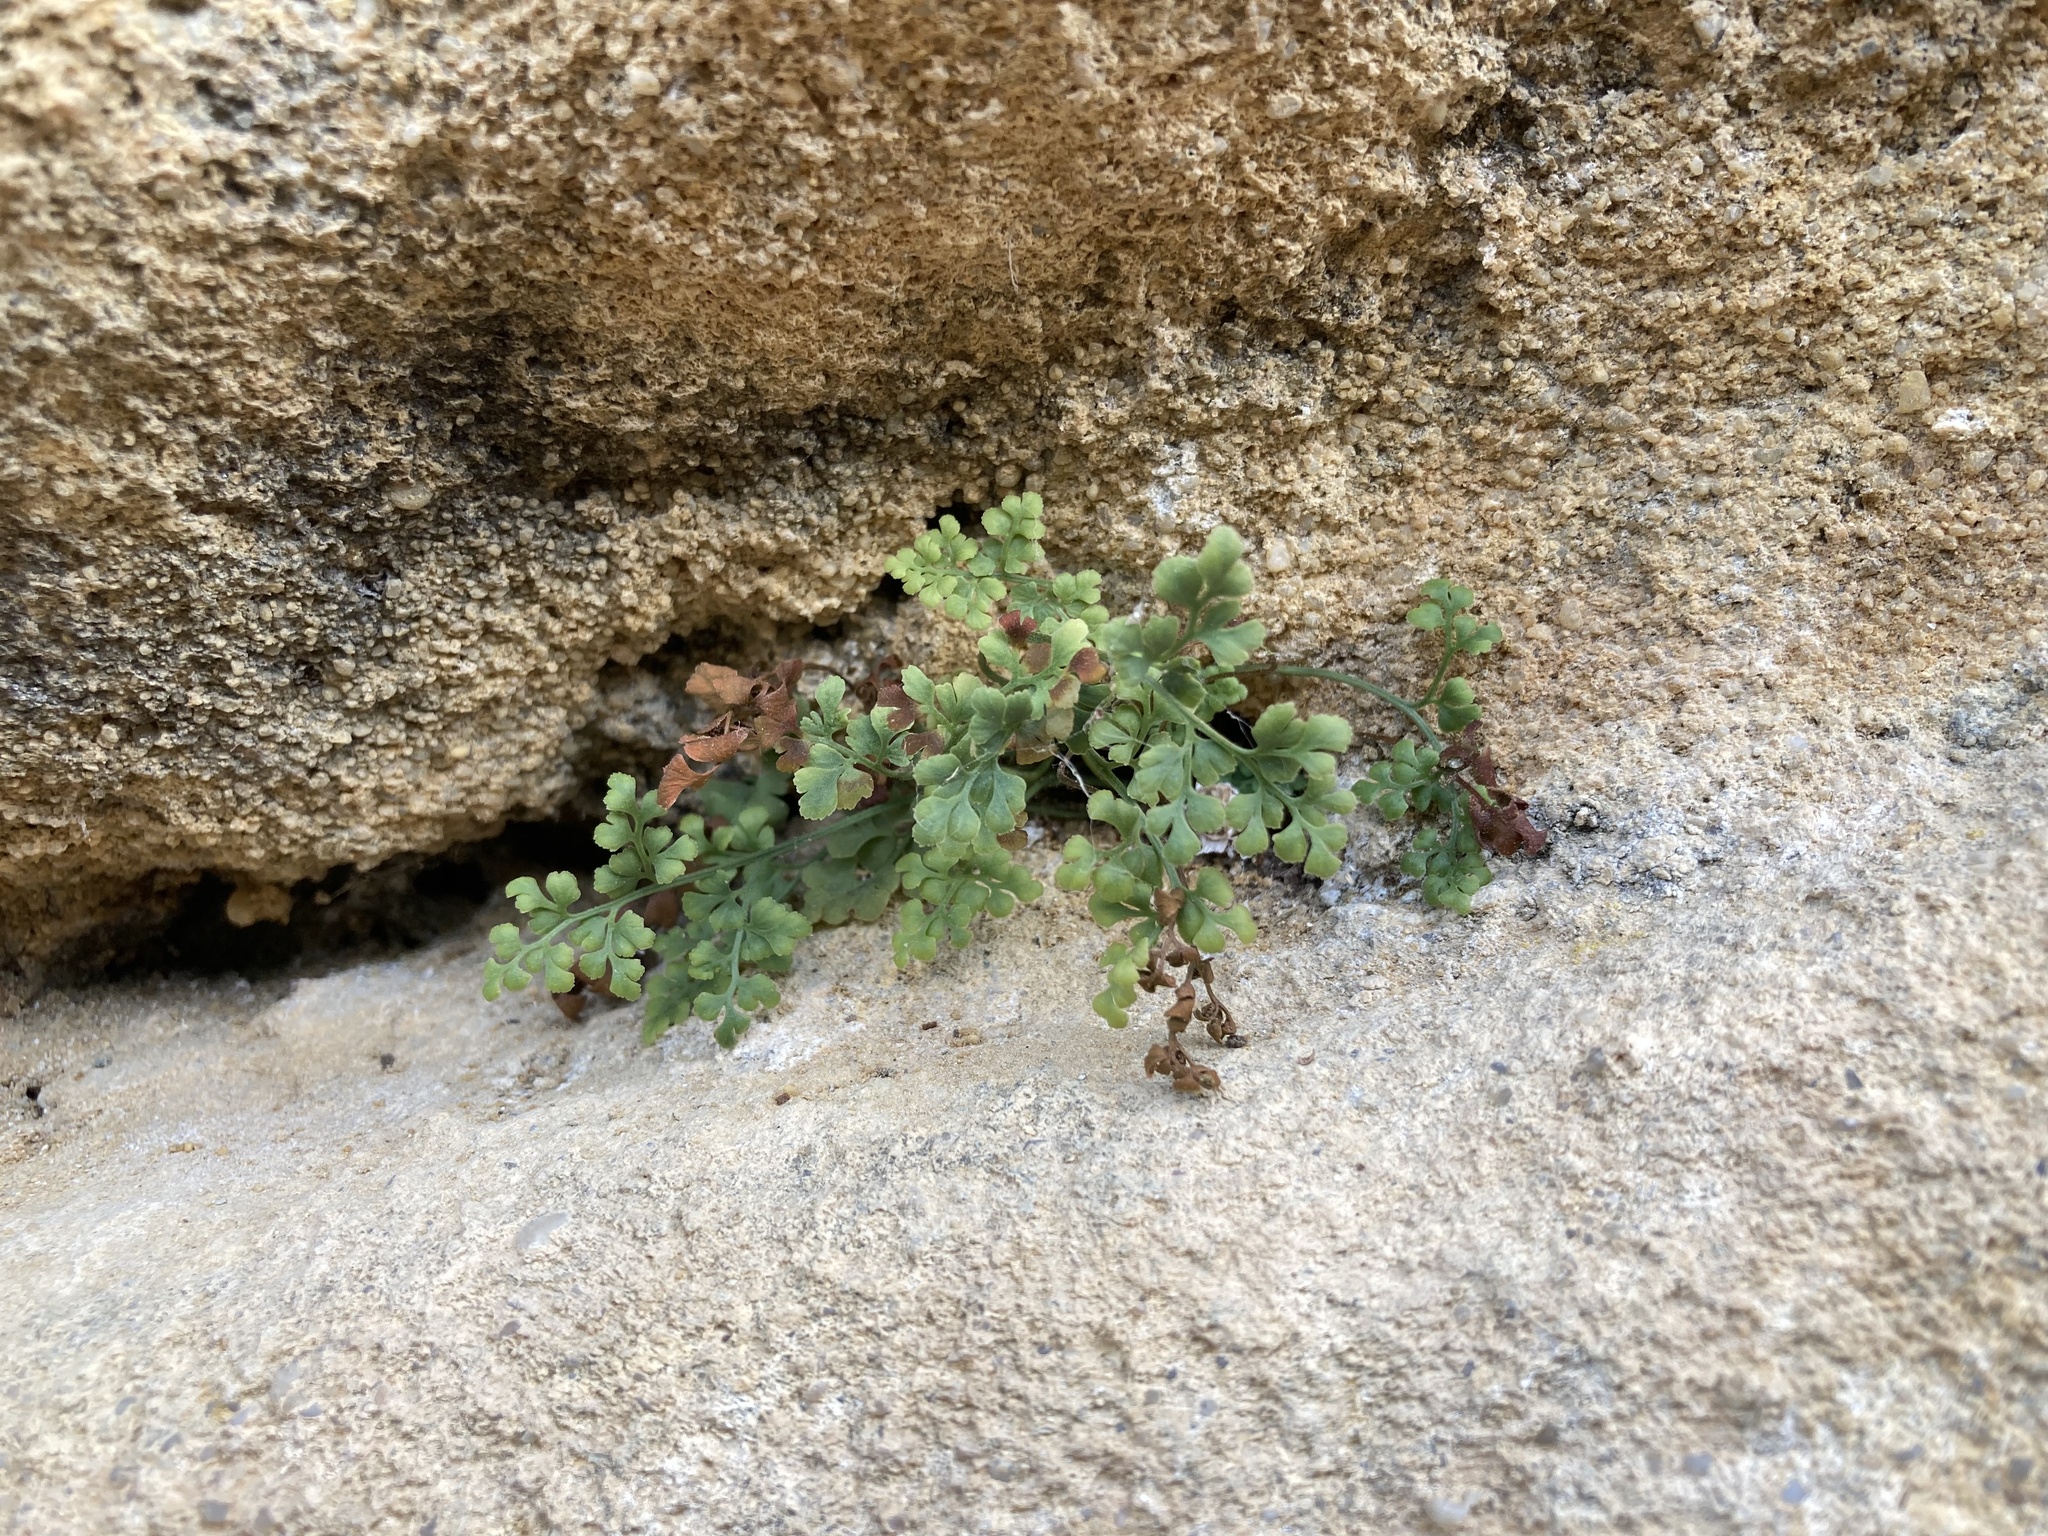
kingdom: Plantae
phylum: Tracheophyta
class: Polypodiopsida
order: Polypodiales
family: Aspleniaceae
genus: Asplenium
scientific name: Asplenium ruta-muraria
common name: Wall-rue
